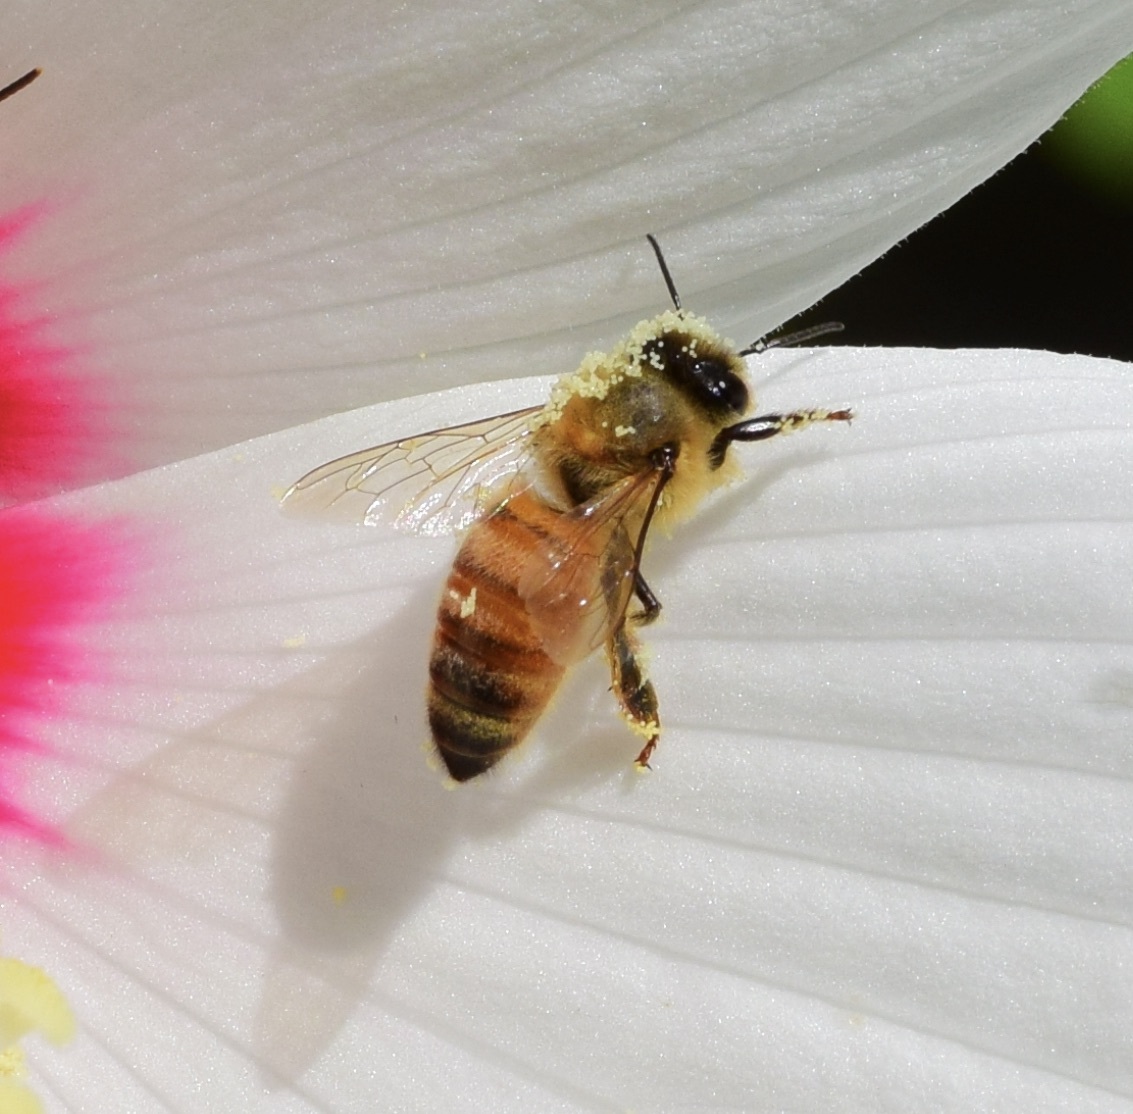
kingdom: Animalia
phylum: Arthropoda
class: Insecta
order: Hymenoptera
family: Apidae
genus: Apis
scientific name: Apis mellifera
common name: Honey bee
